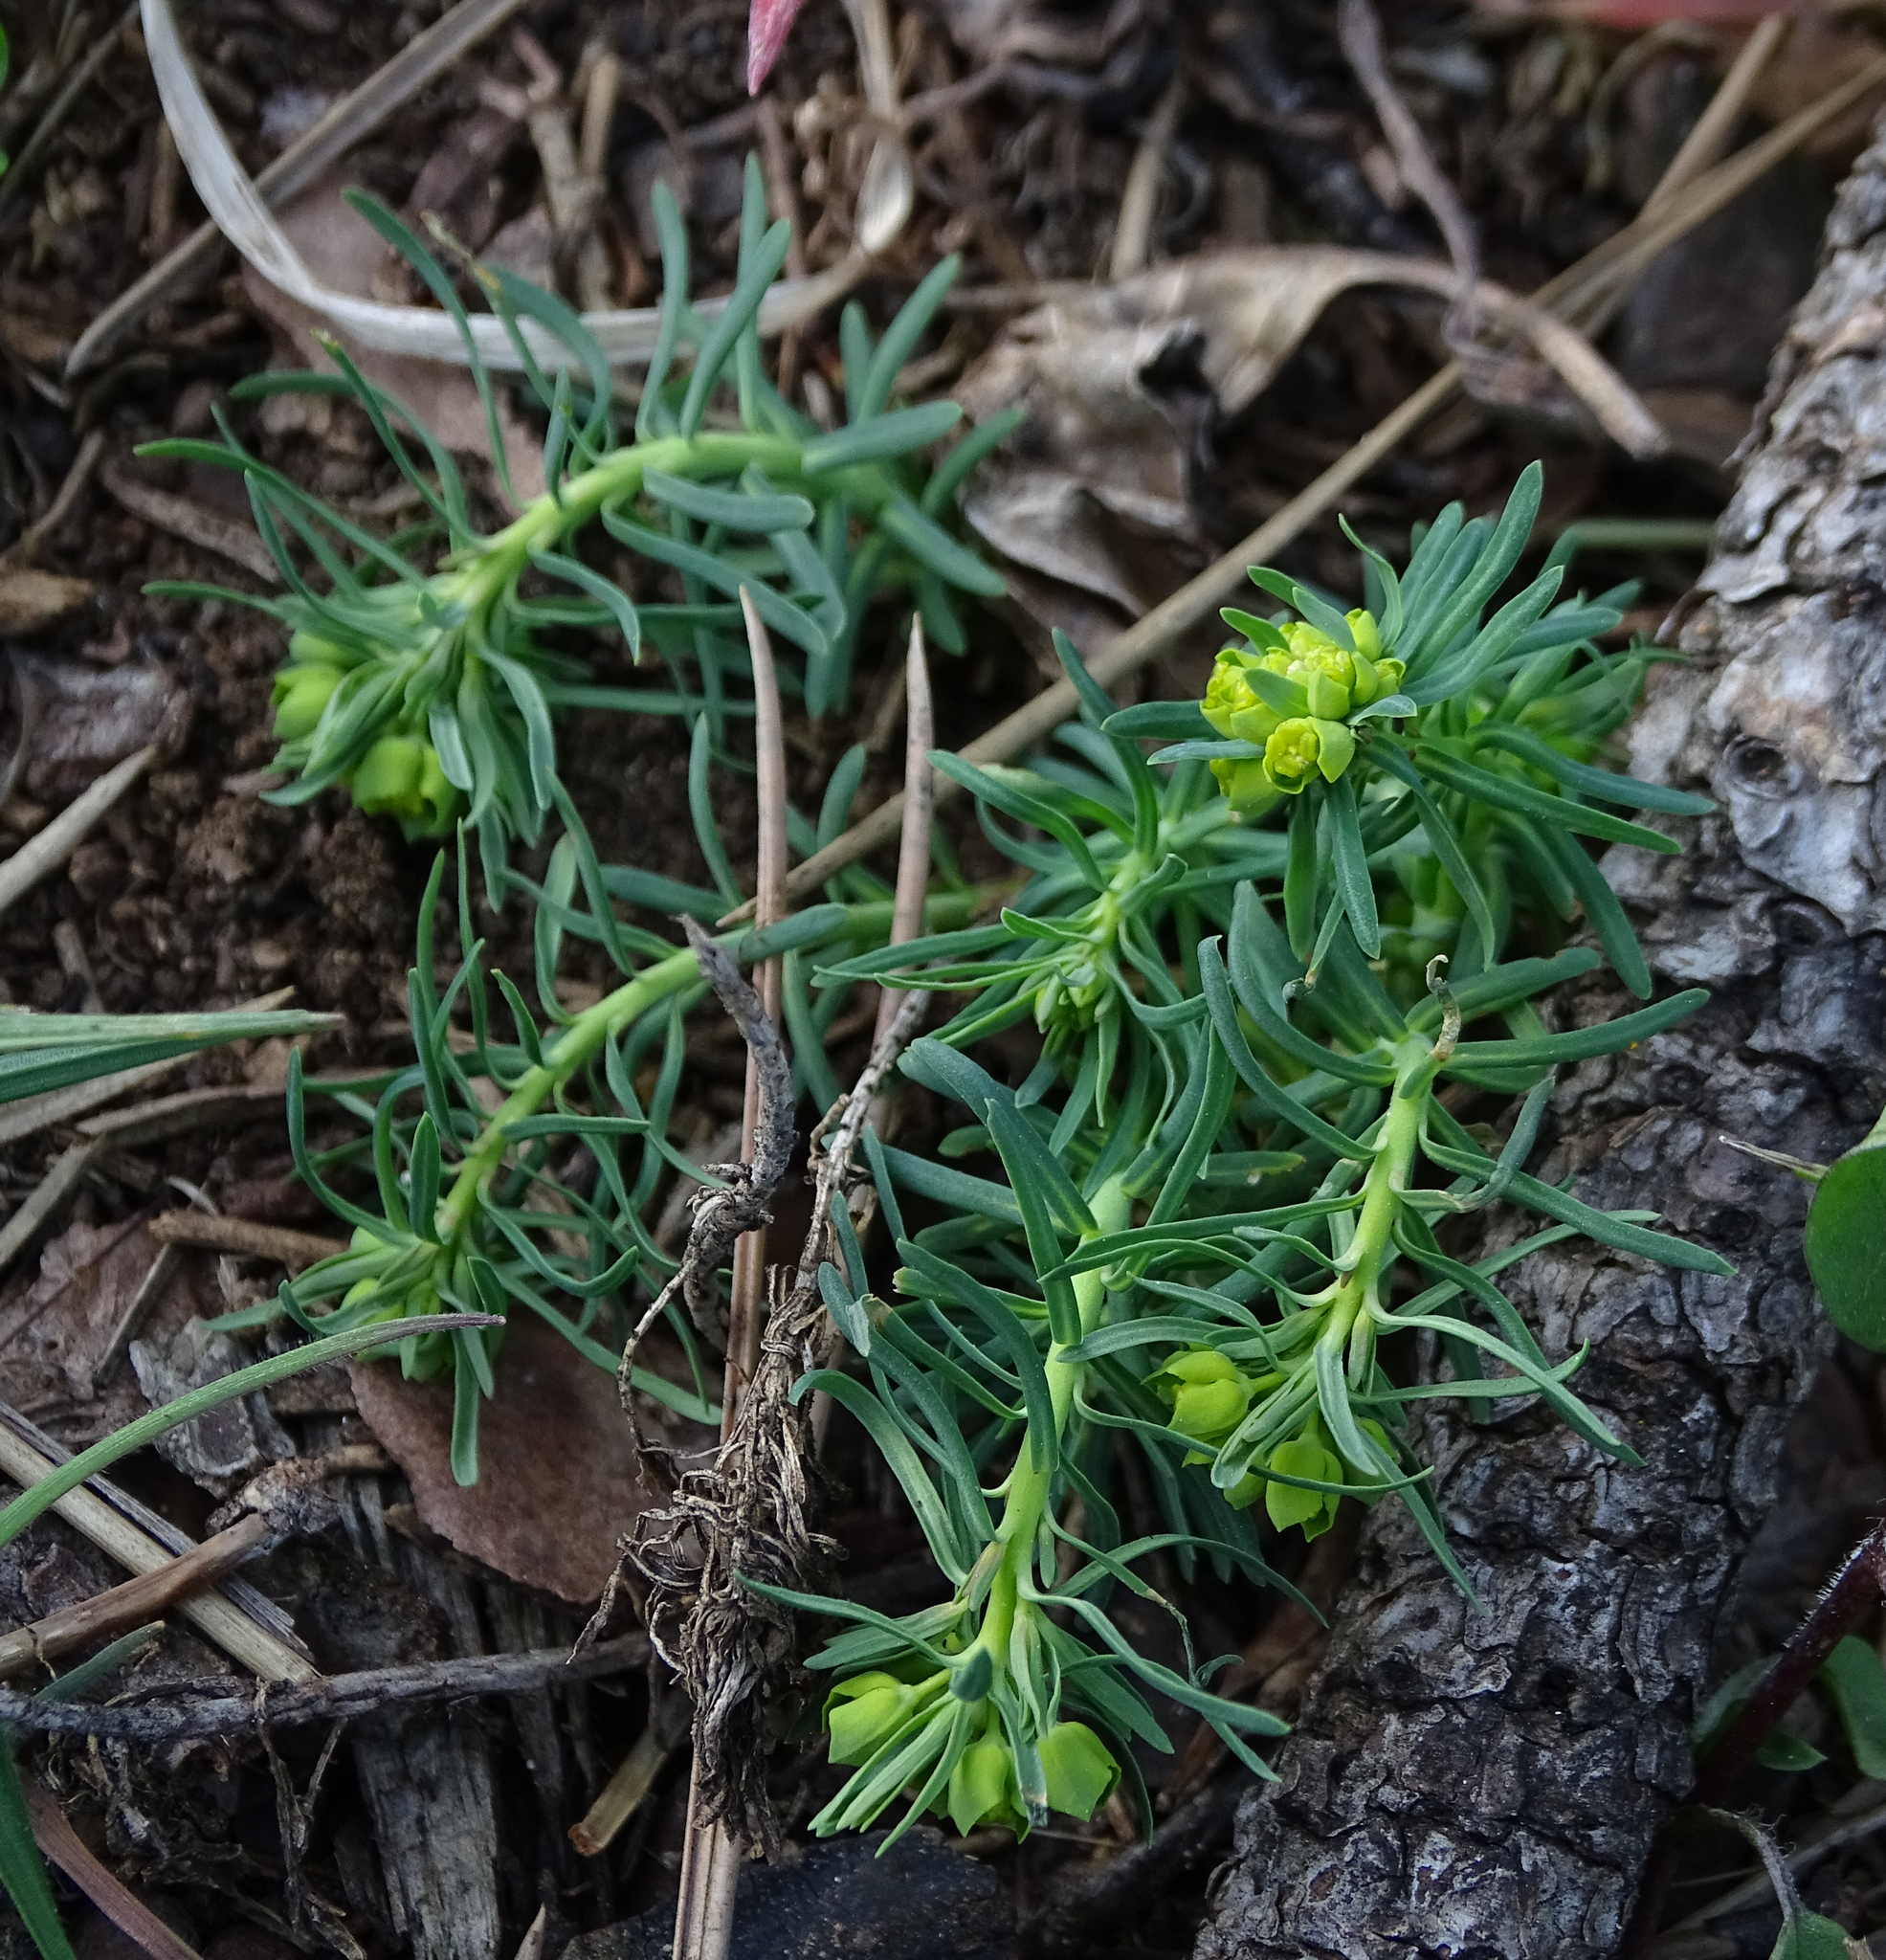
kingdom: Plantae
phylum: Tracheophyta
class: Magnoliopsida
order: Malpighiales
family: Euphorbiaceae
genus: Euphorbia
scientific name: Euphorbia cyparissias
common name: Cypress spurge
